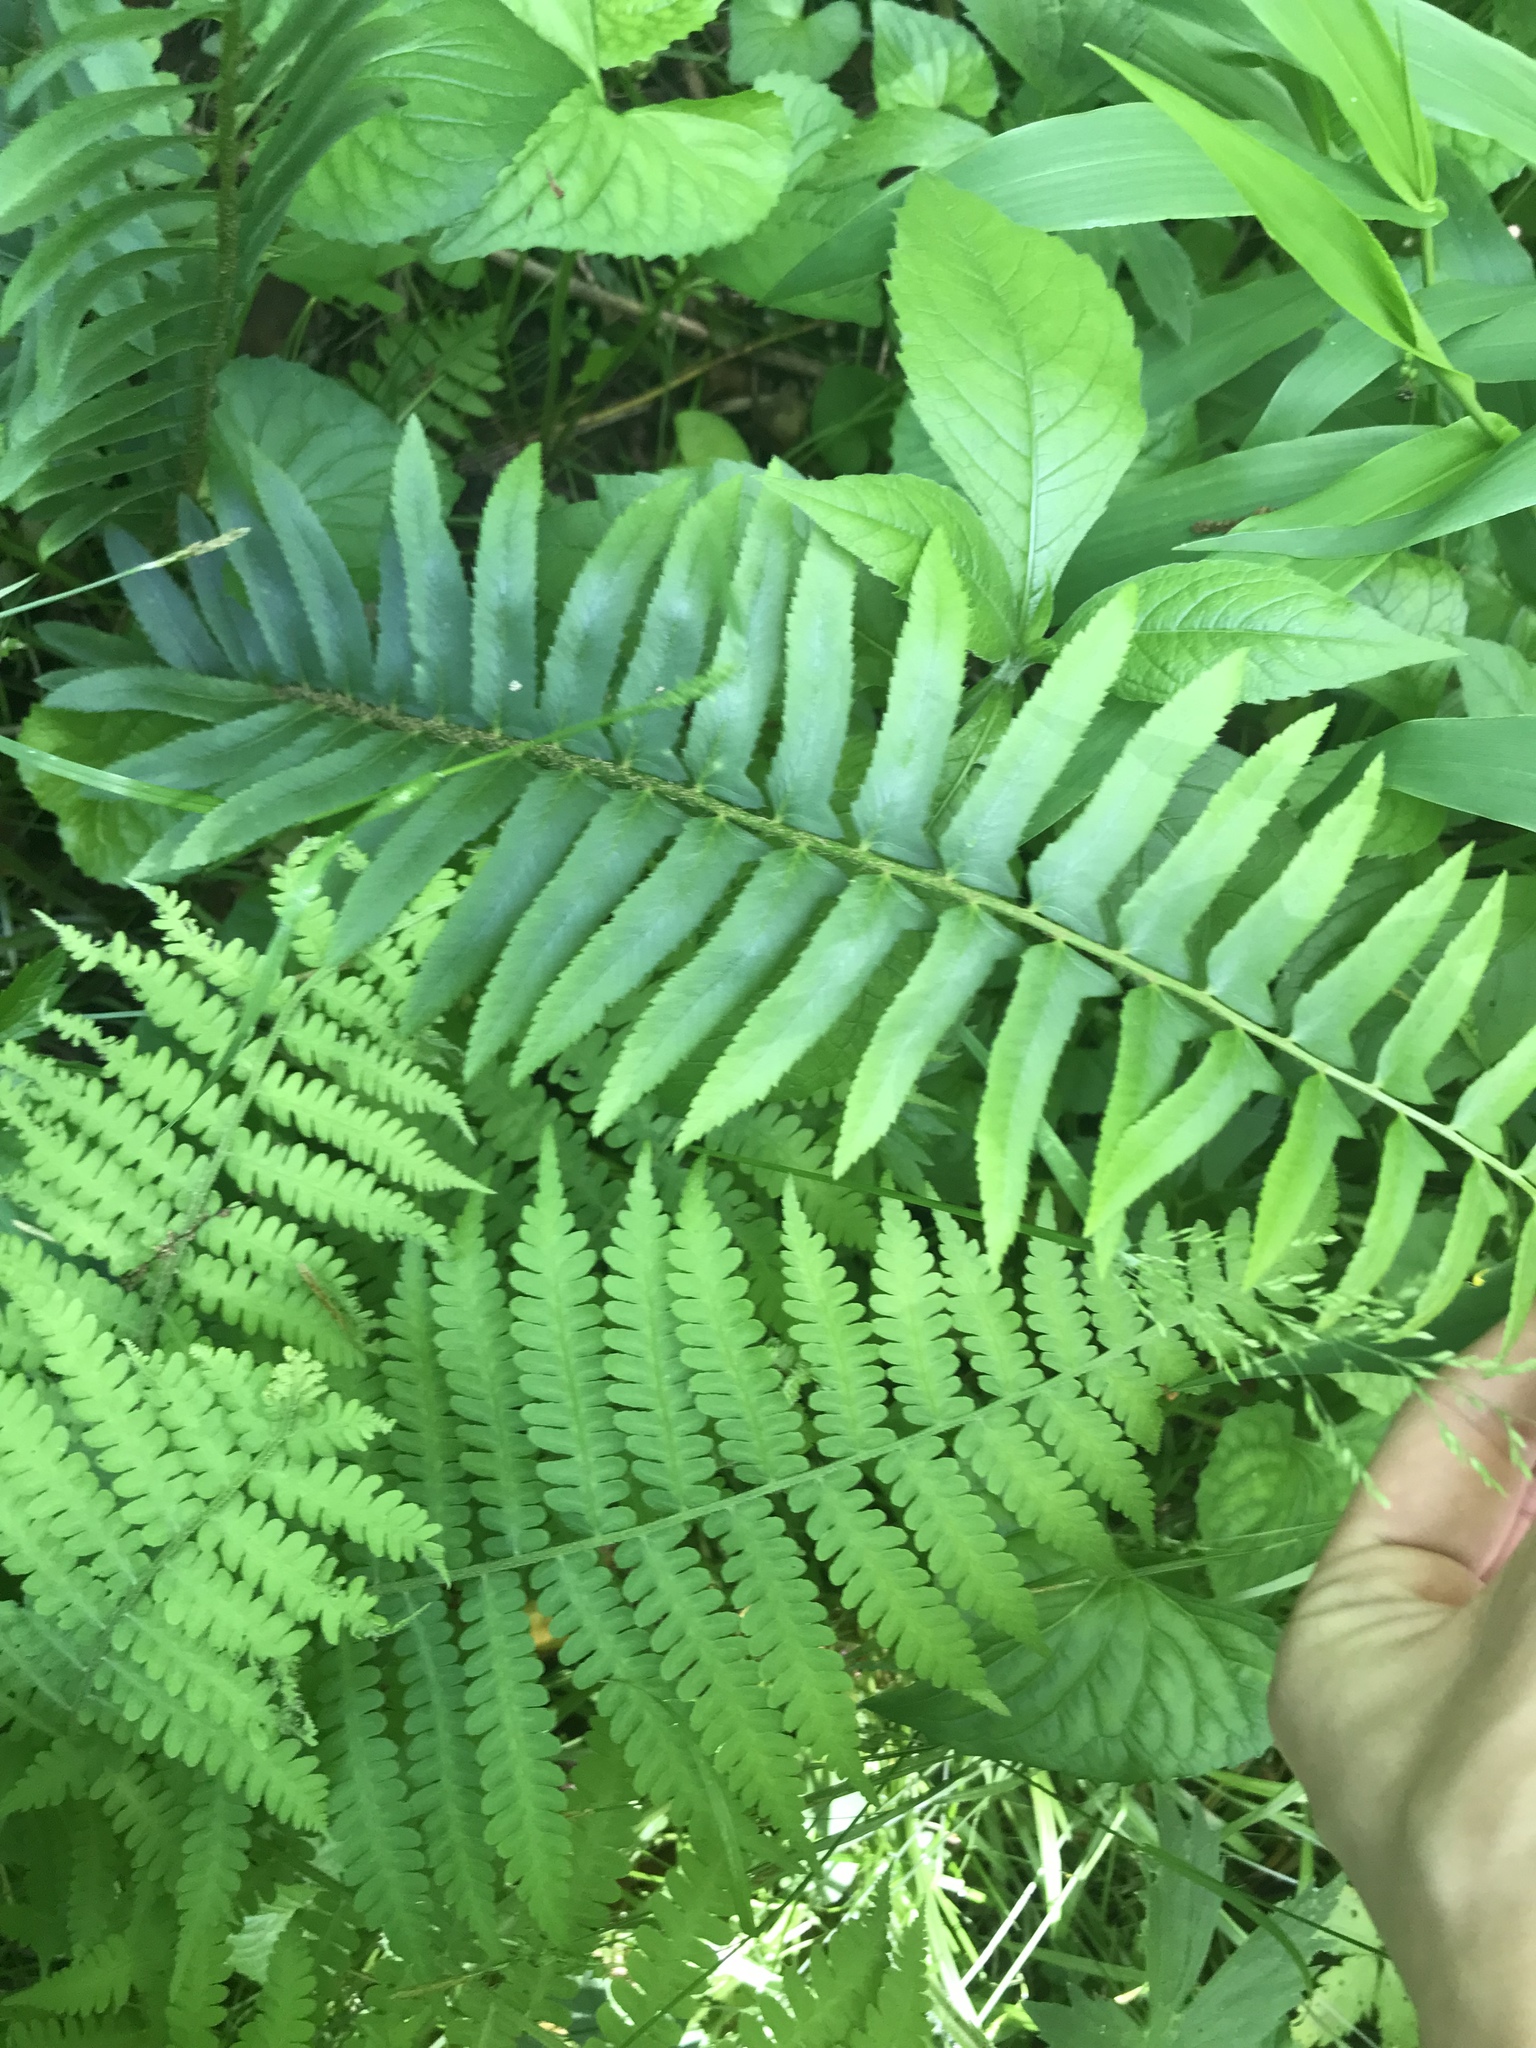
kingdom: Plantae
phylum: Tracheophyta
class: Polypodiopsida
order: Polypodiales
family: Dryopteridaceae
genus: Polystichum
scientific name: Polystichum acrostichoides
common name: Christmas fern
